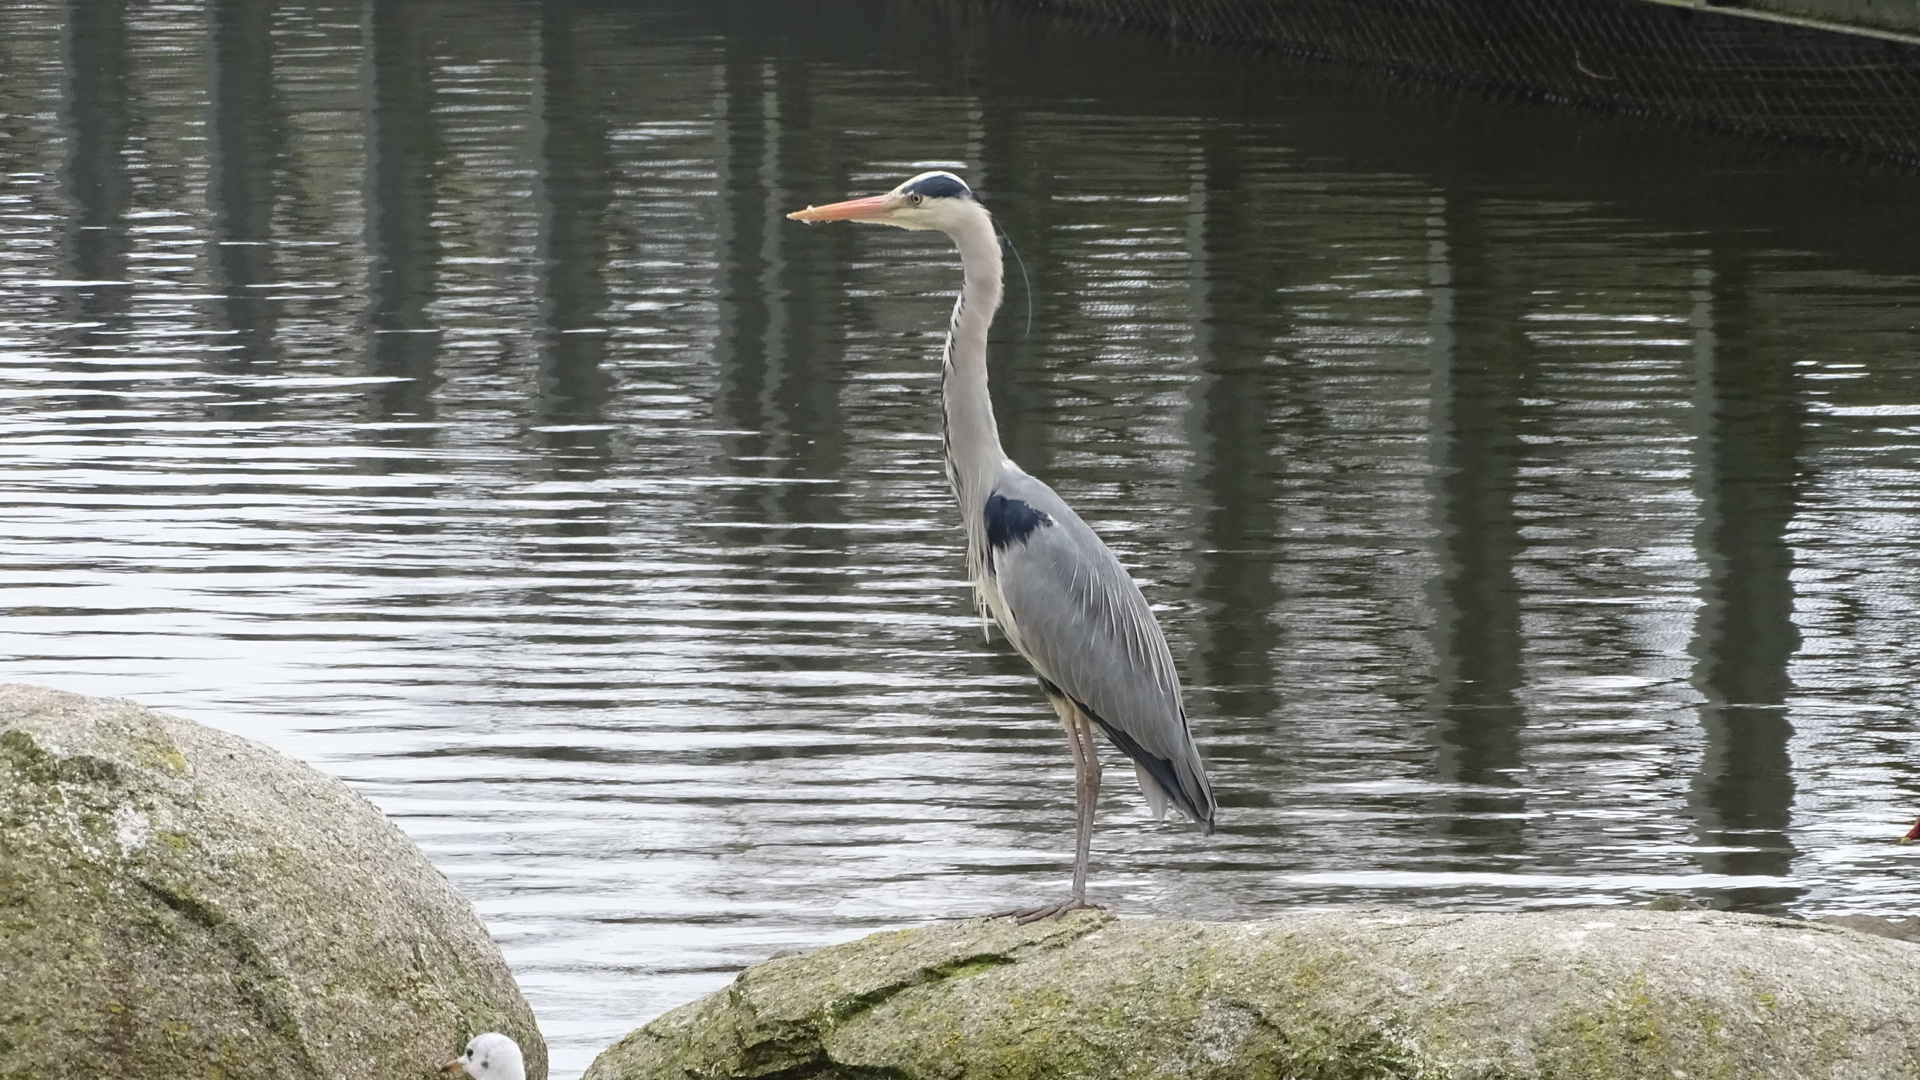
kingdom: Animalia
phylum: Chordata
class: Aves
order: Pelecaniformes
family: Ardeidae
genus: Ardea
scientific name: Ardea cinerea
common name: Grey heron
